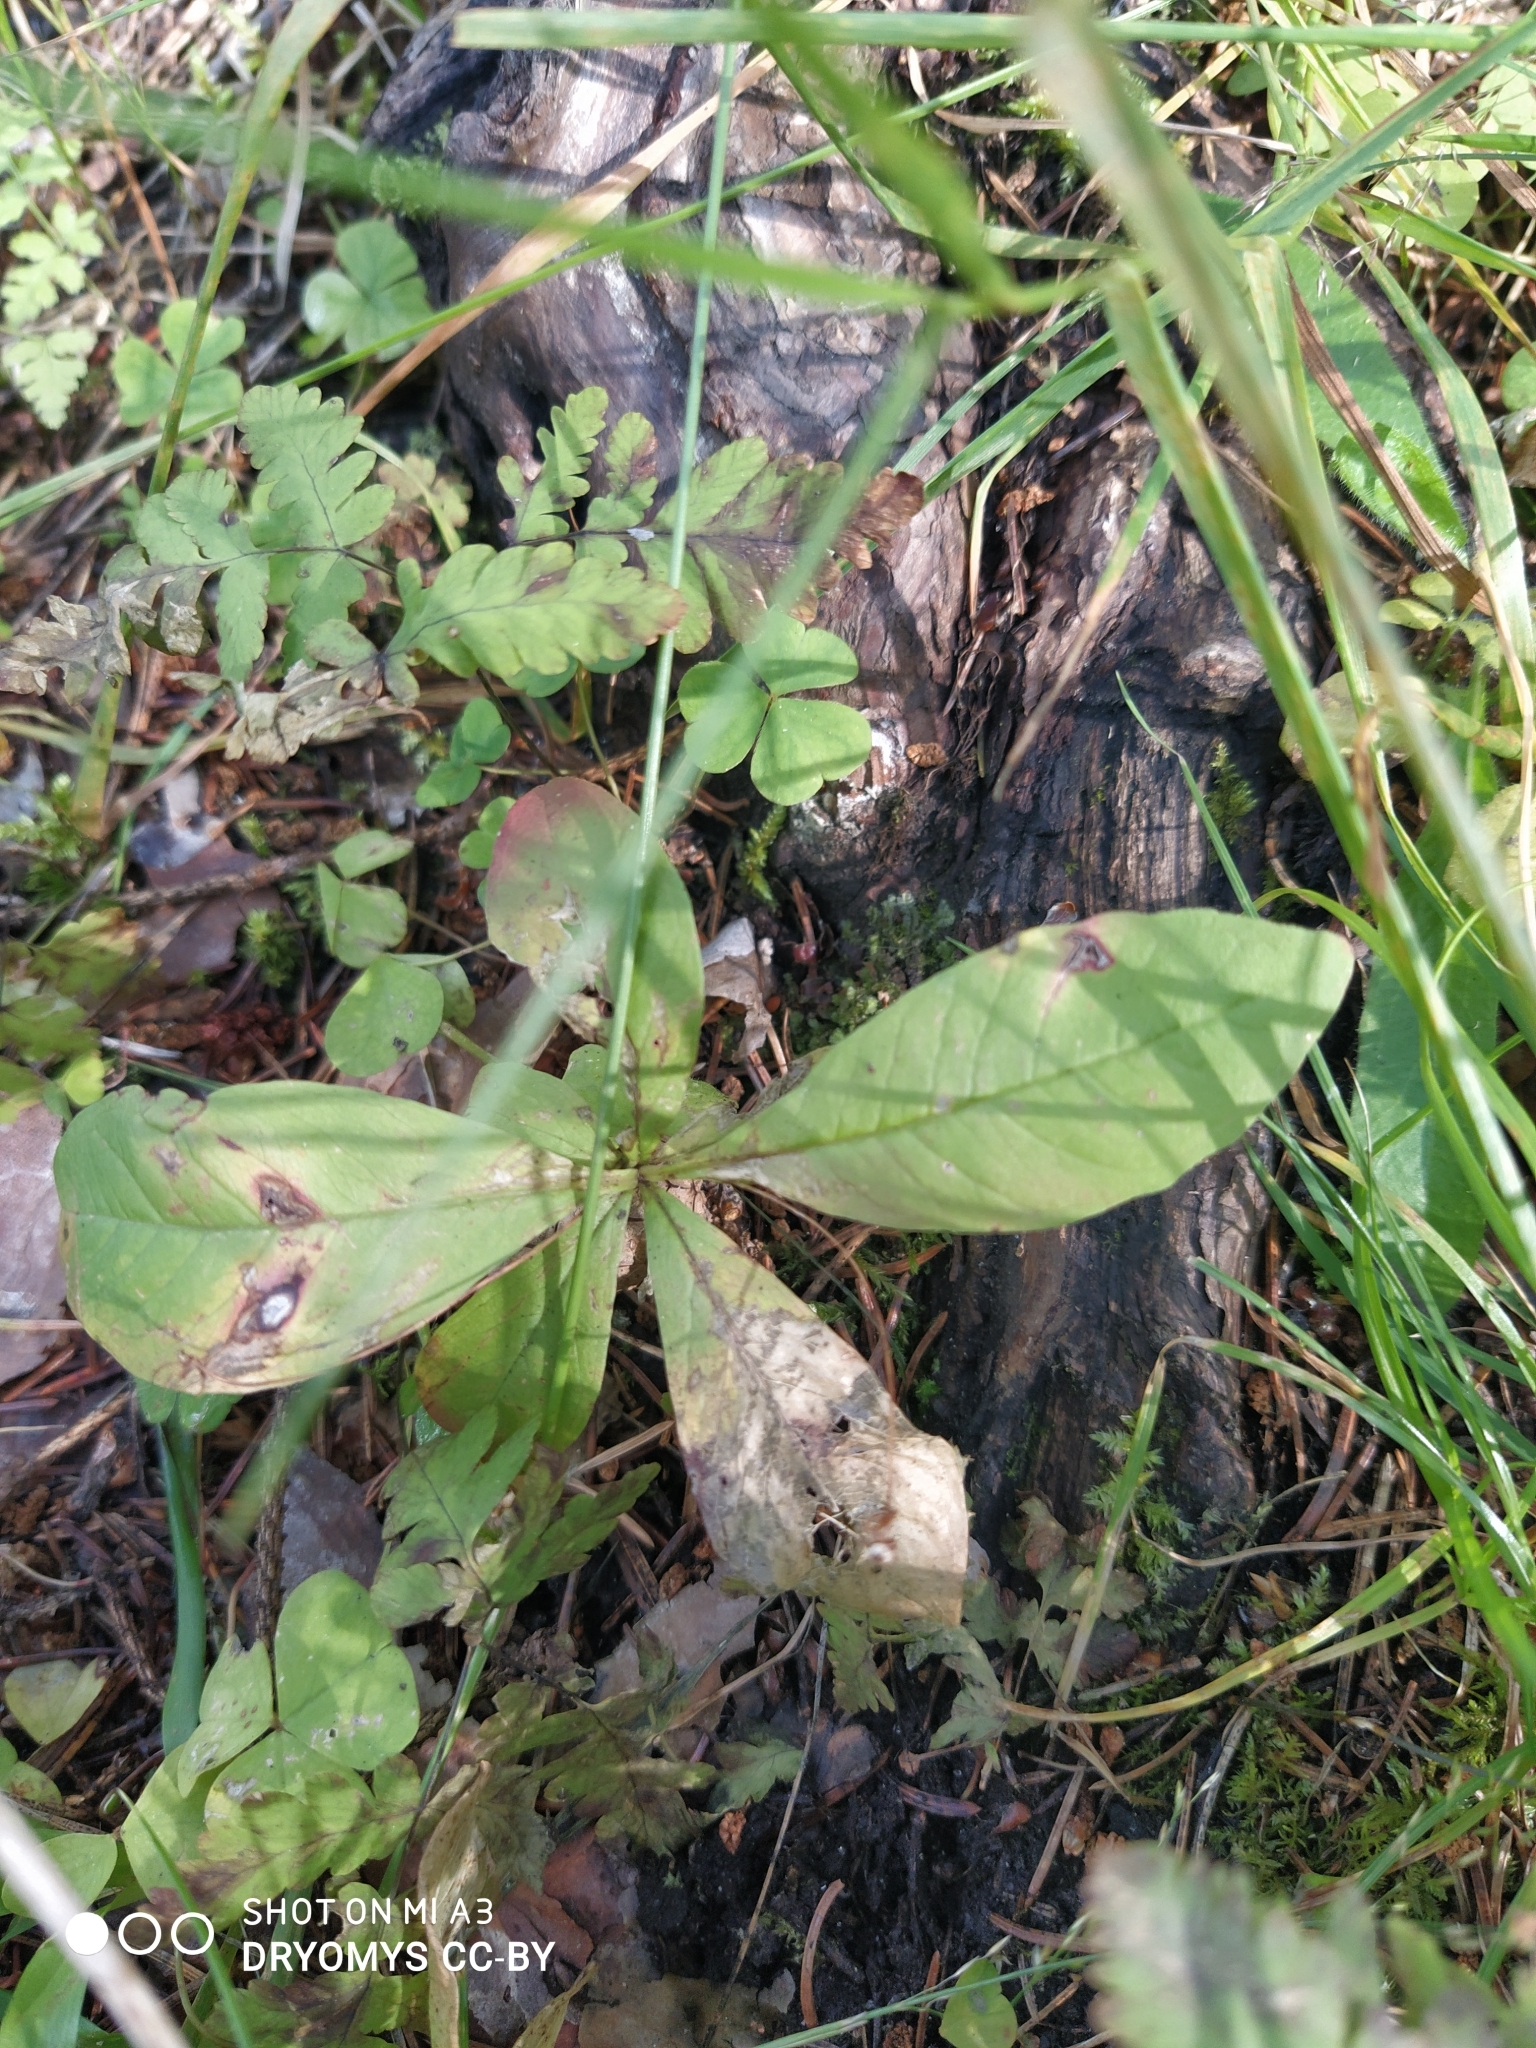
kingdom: Plantae
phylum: Tracheophyta
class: Magnoliopsida
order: Ericales
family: Primulaceae
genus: Lysimachia
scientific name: Lysimachia europaea
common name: Arctic starflower
